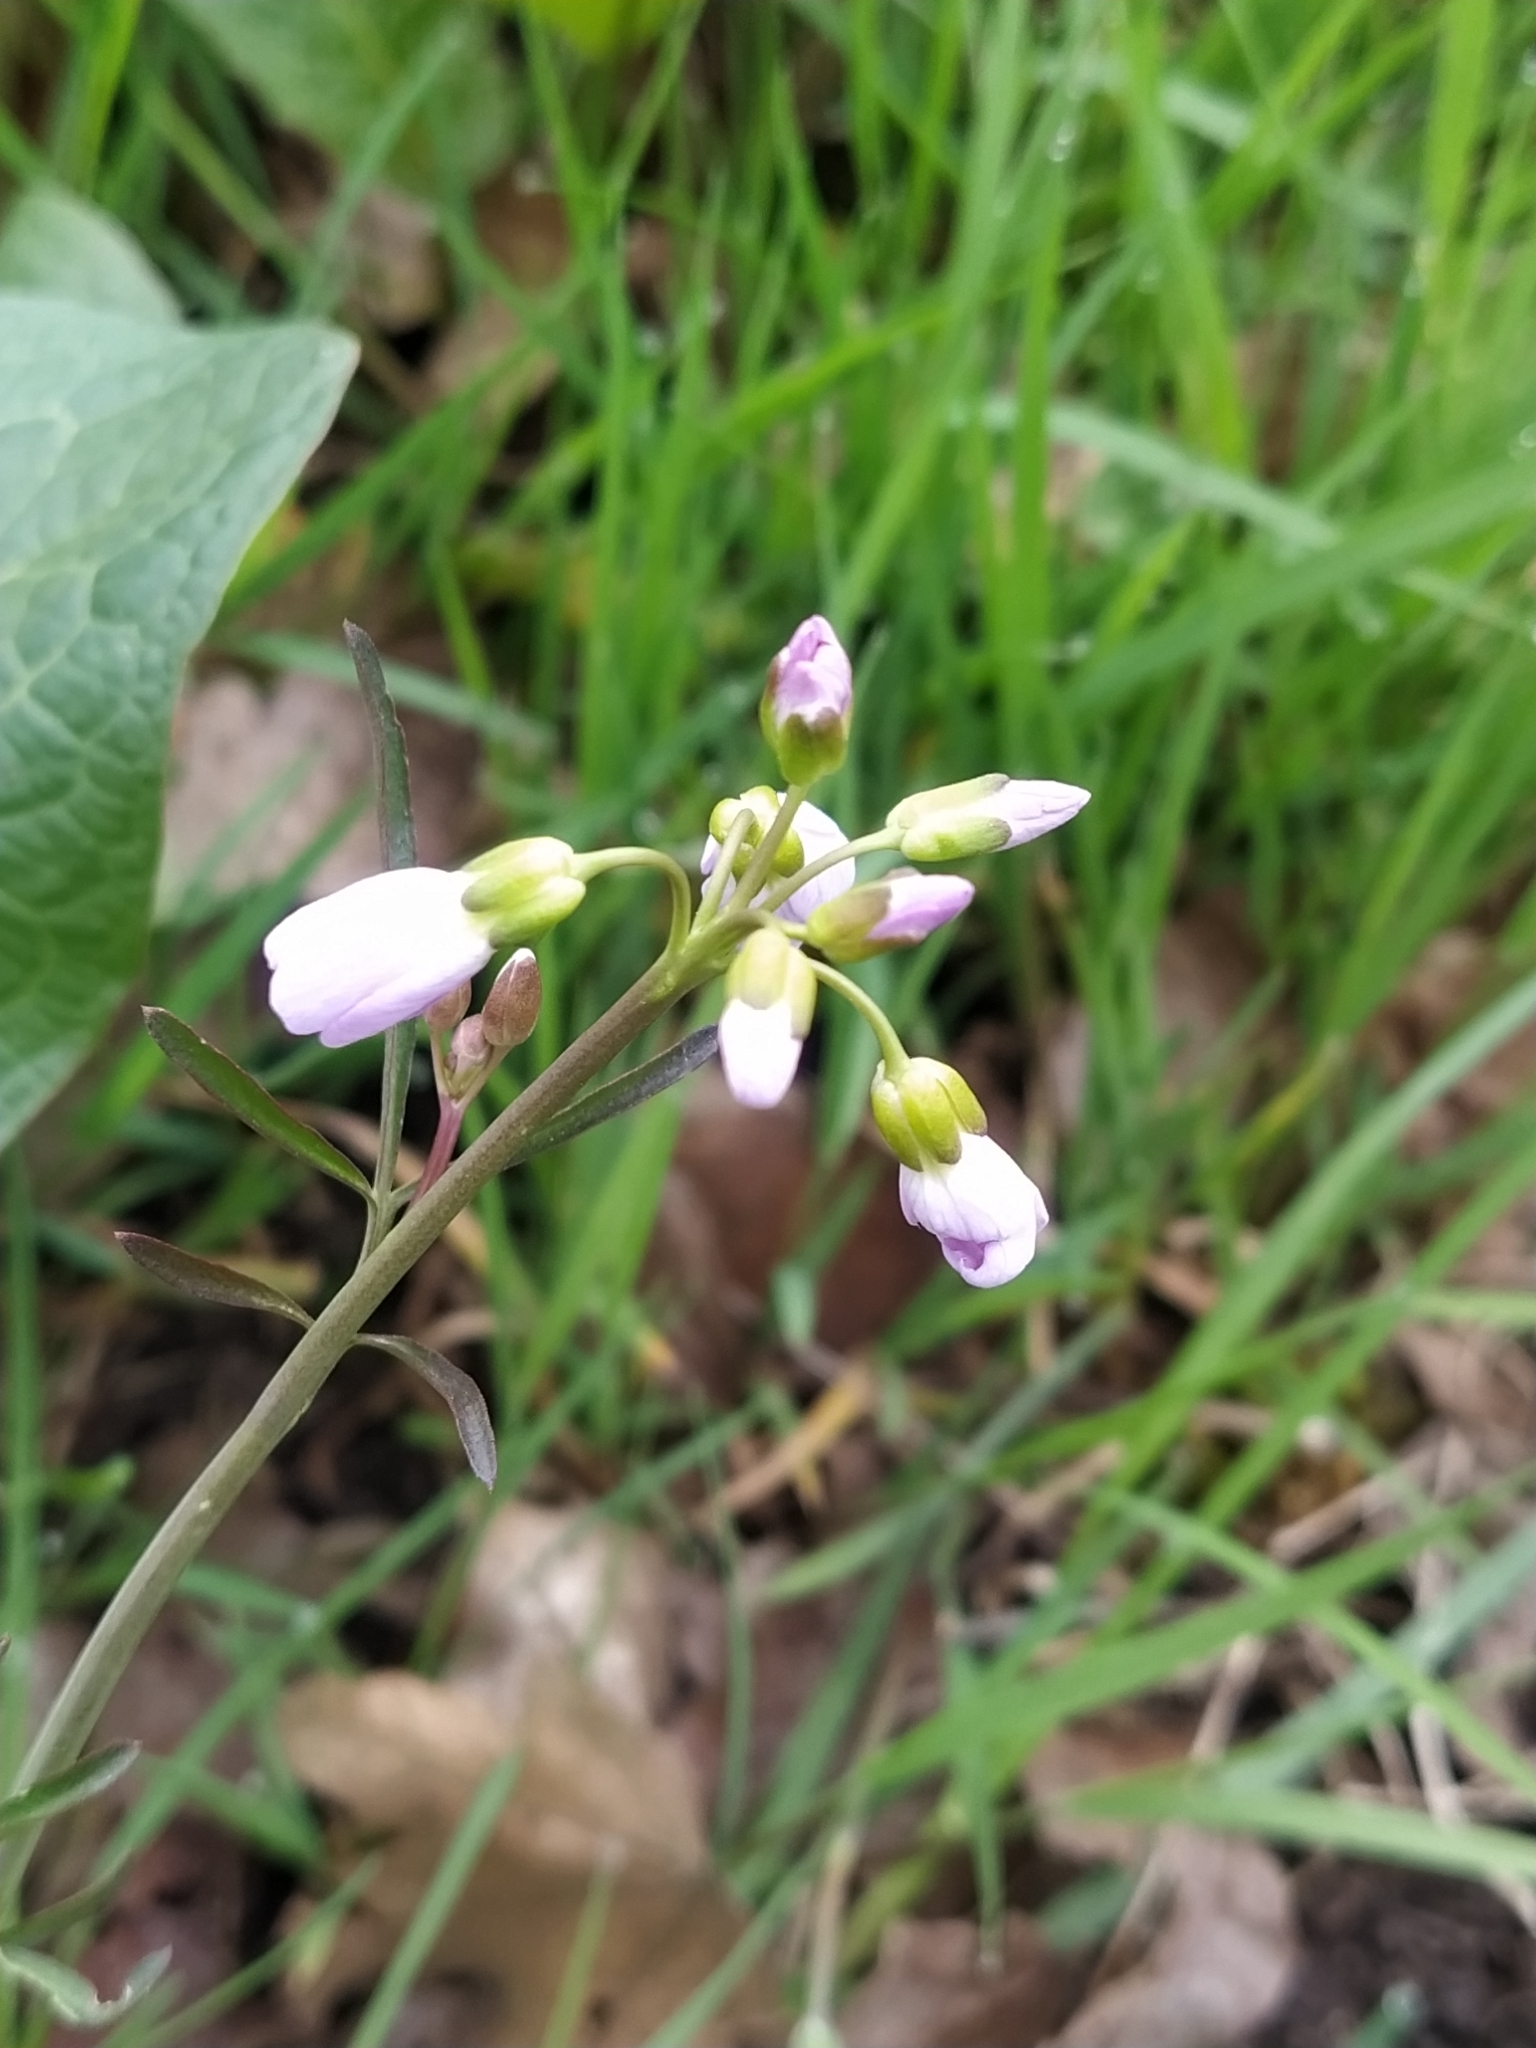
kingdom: Plantae
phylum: Tracheophyta
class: Magnoliopsida
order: Brassicales
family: Brassicaceae
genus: Cardamine
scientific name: Cardamine pratensis
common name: Cuckoo flower
